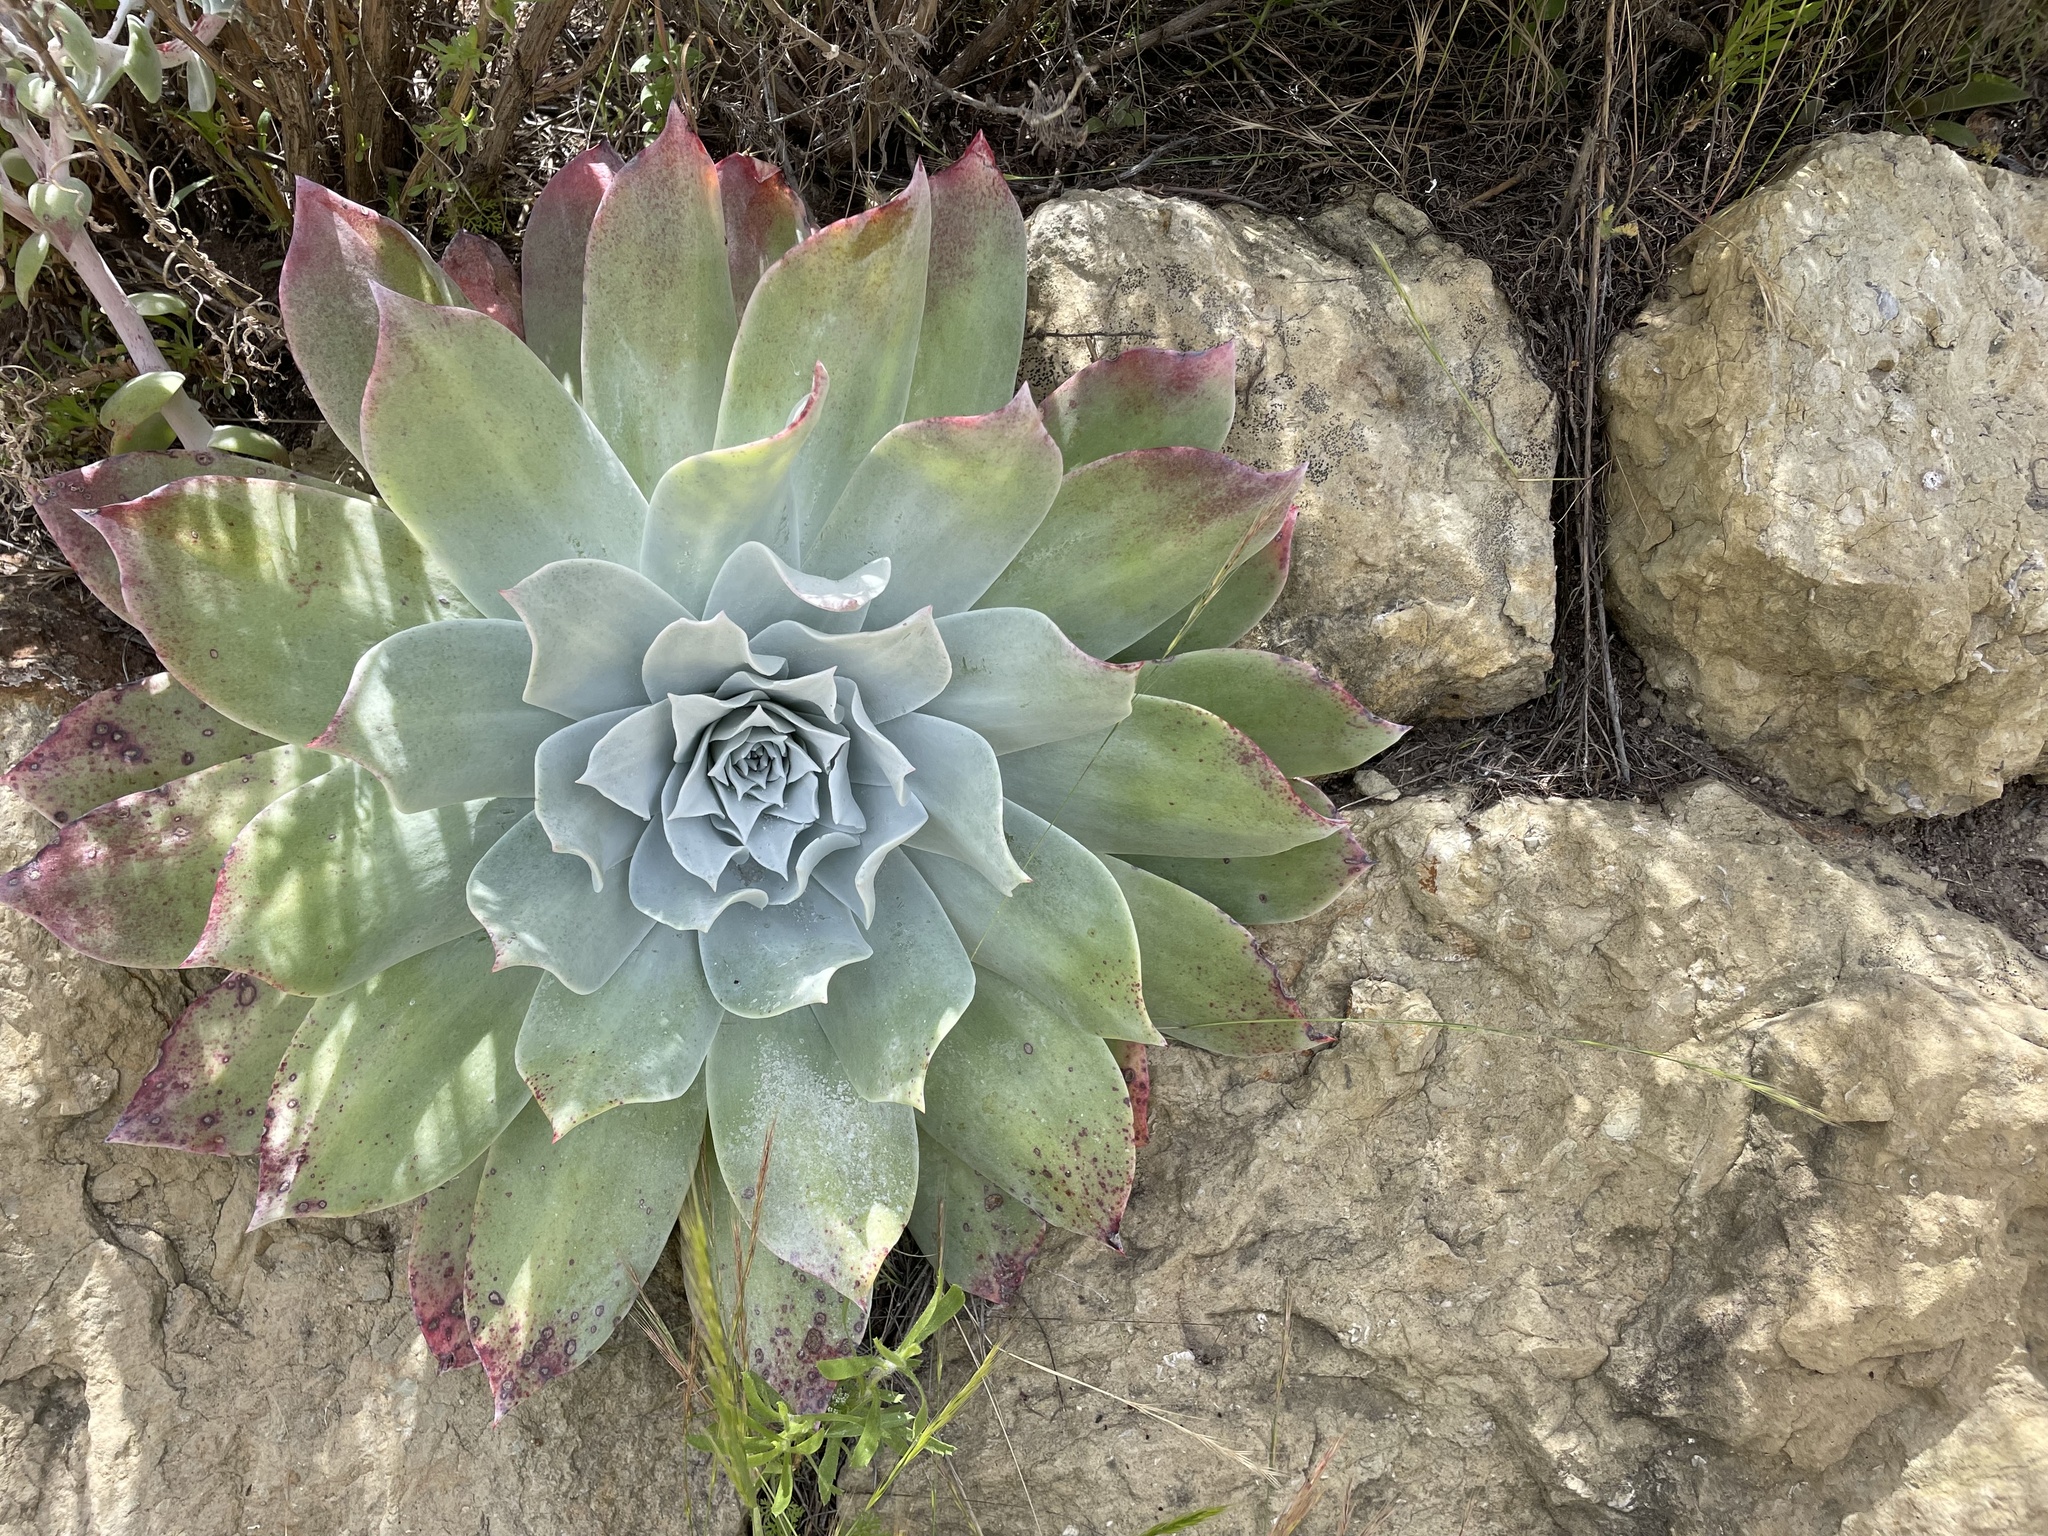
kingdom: Plantae
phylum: Tracheophyta
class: Magnoliopsida
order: Saxifragales
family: Crassulaceae
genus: Dudleya
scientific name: Dudleya pulverulenta
